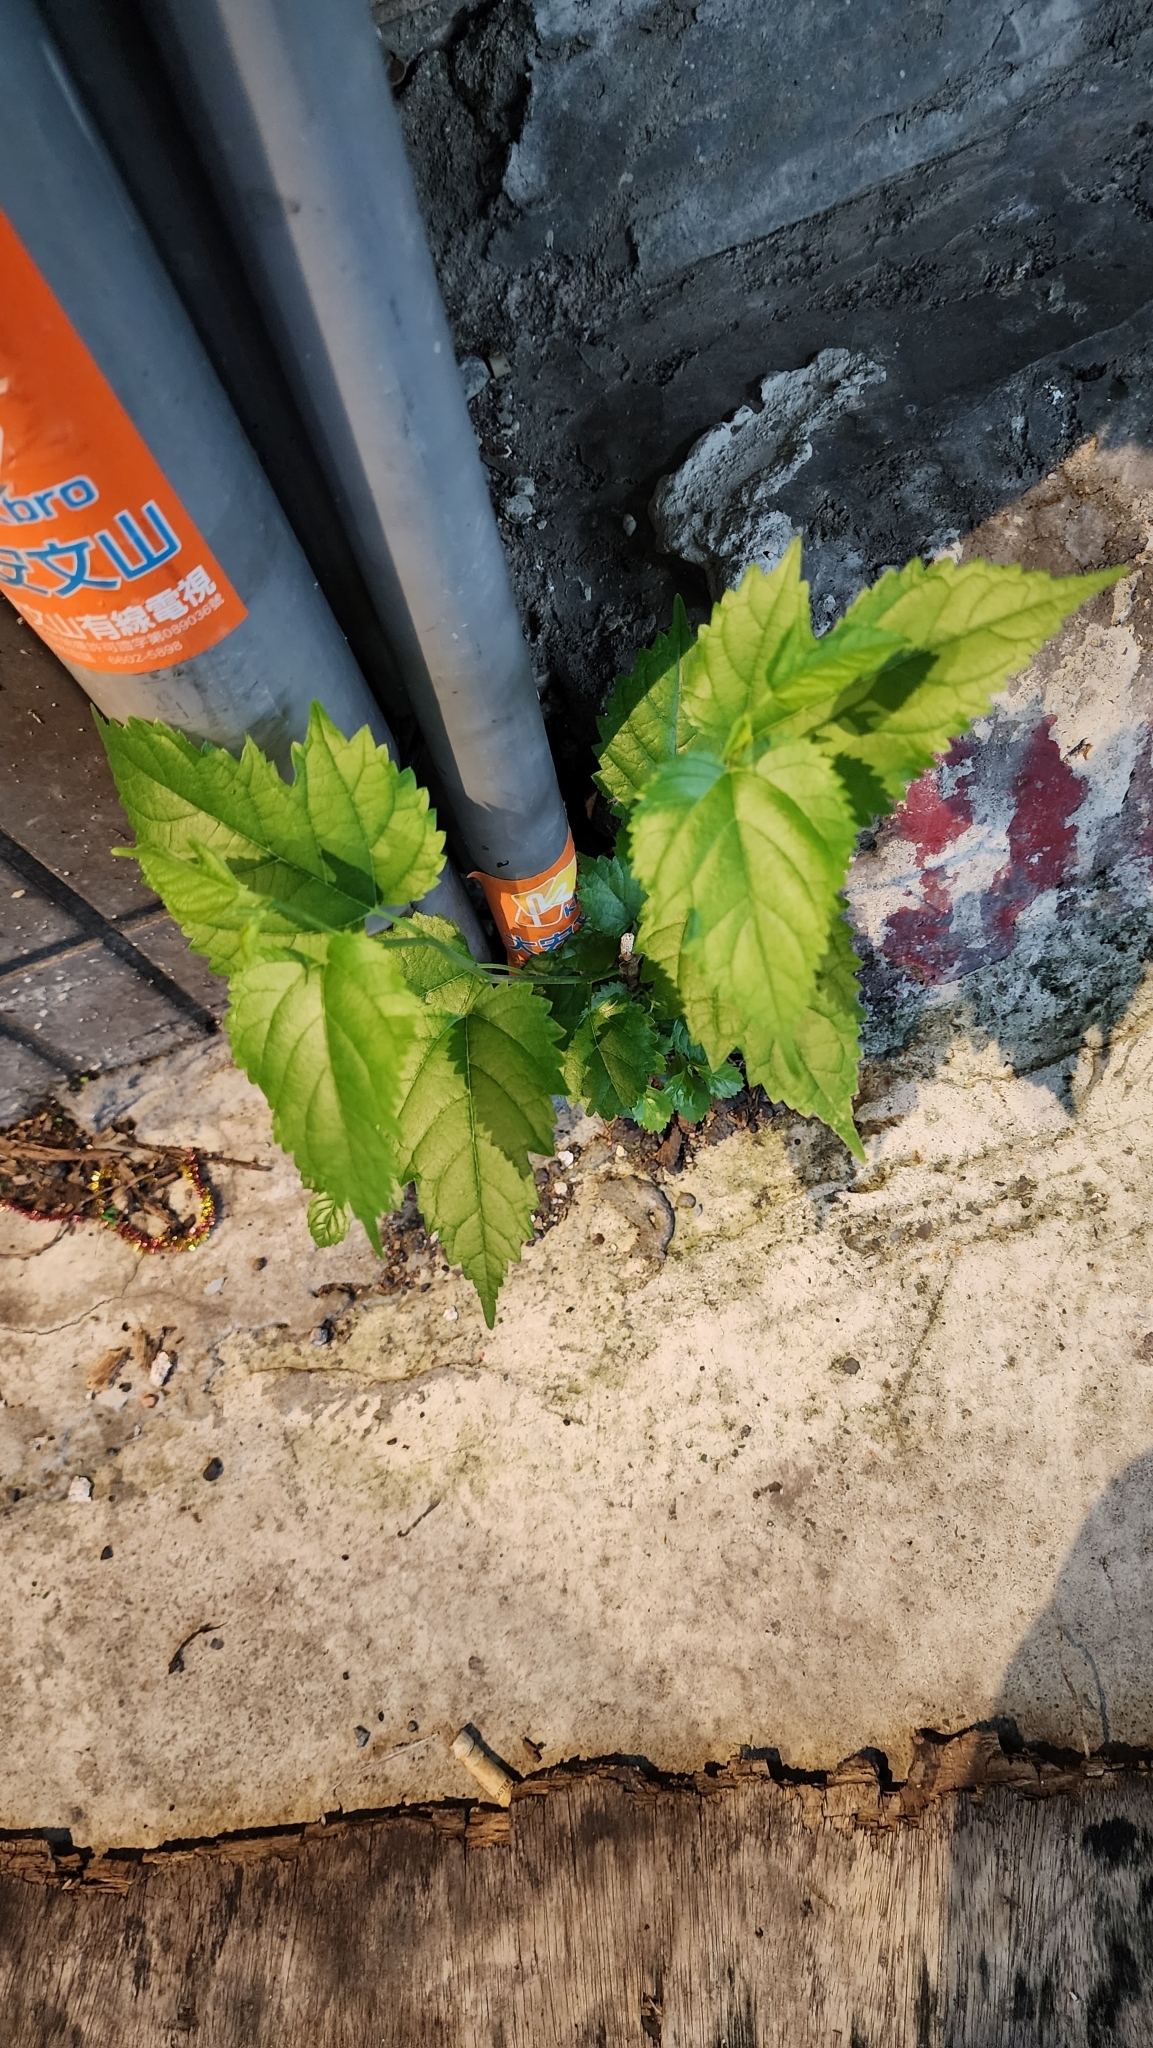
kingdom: Plantae
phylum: Tracheophyta
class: Magnoliopsida
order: Rosales
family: Moraceae
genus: Morus
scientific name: Morus indica
